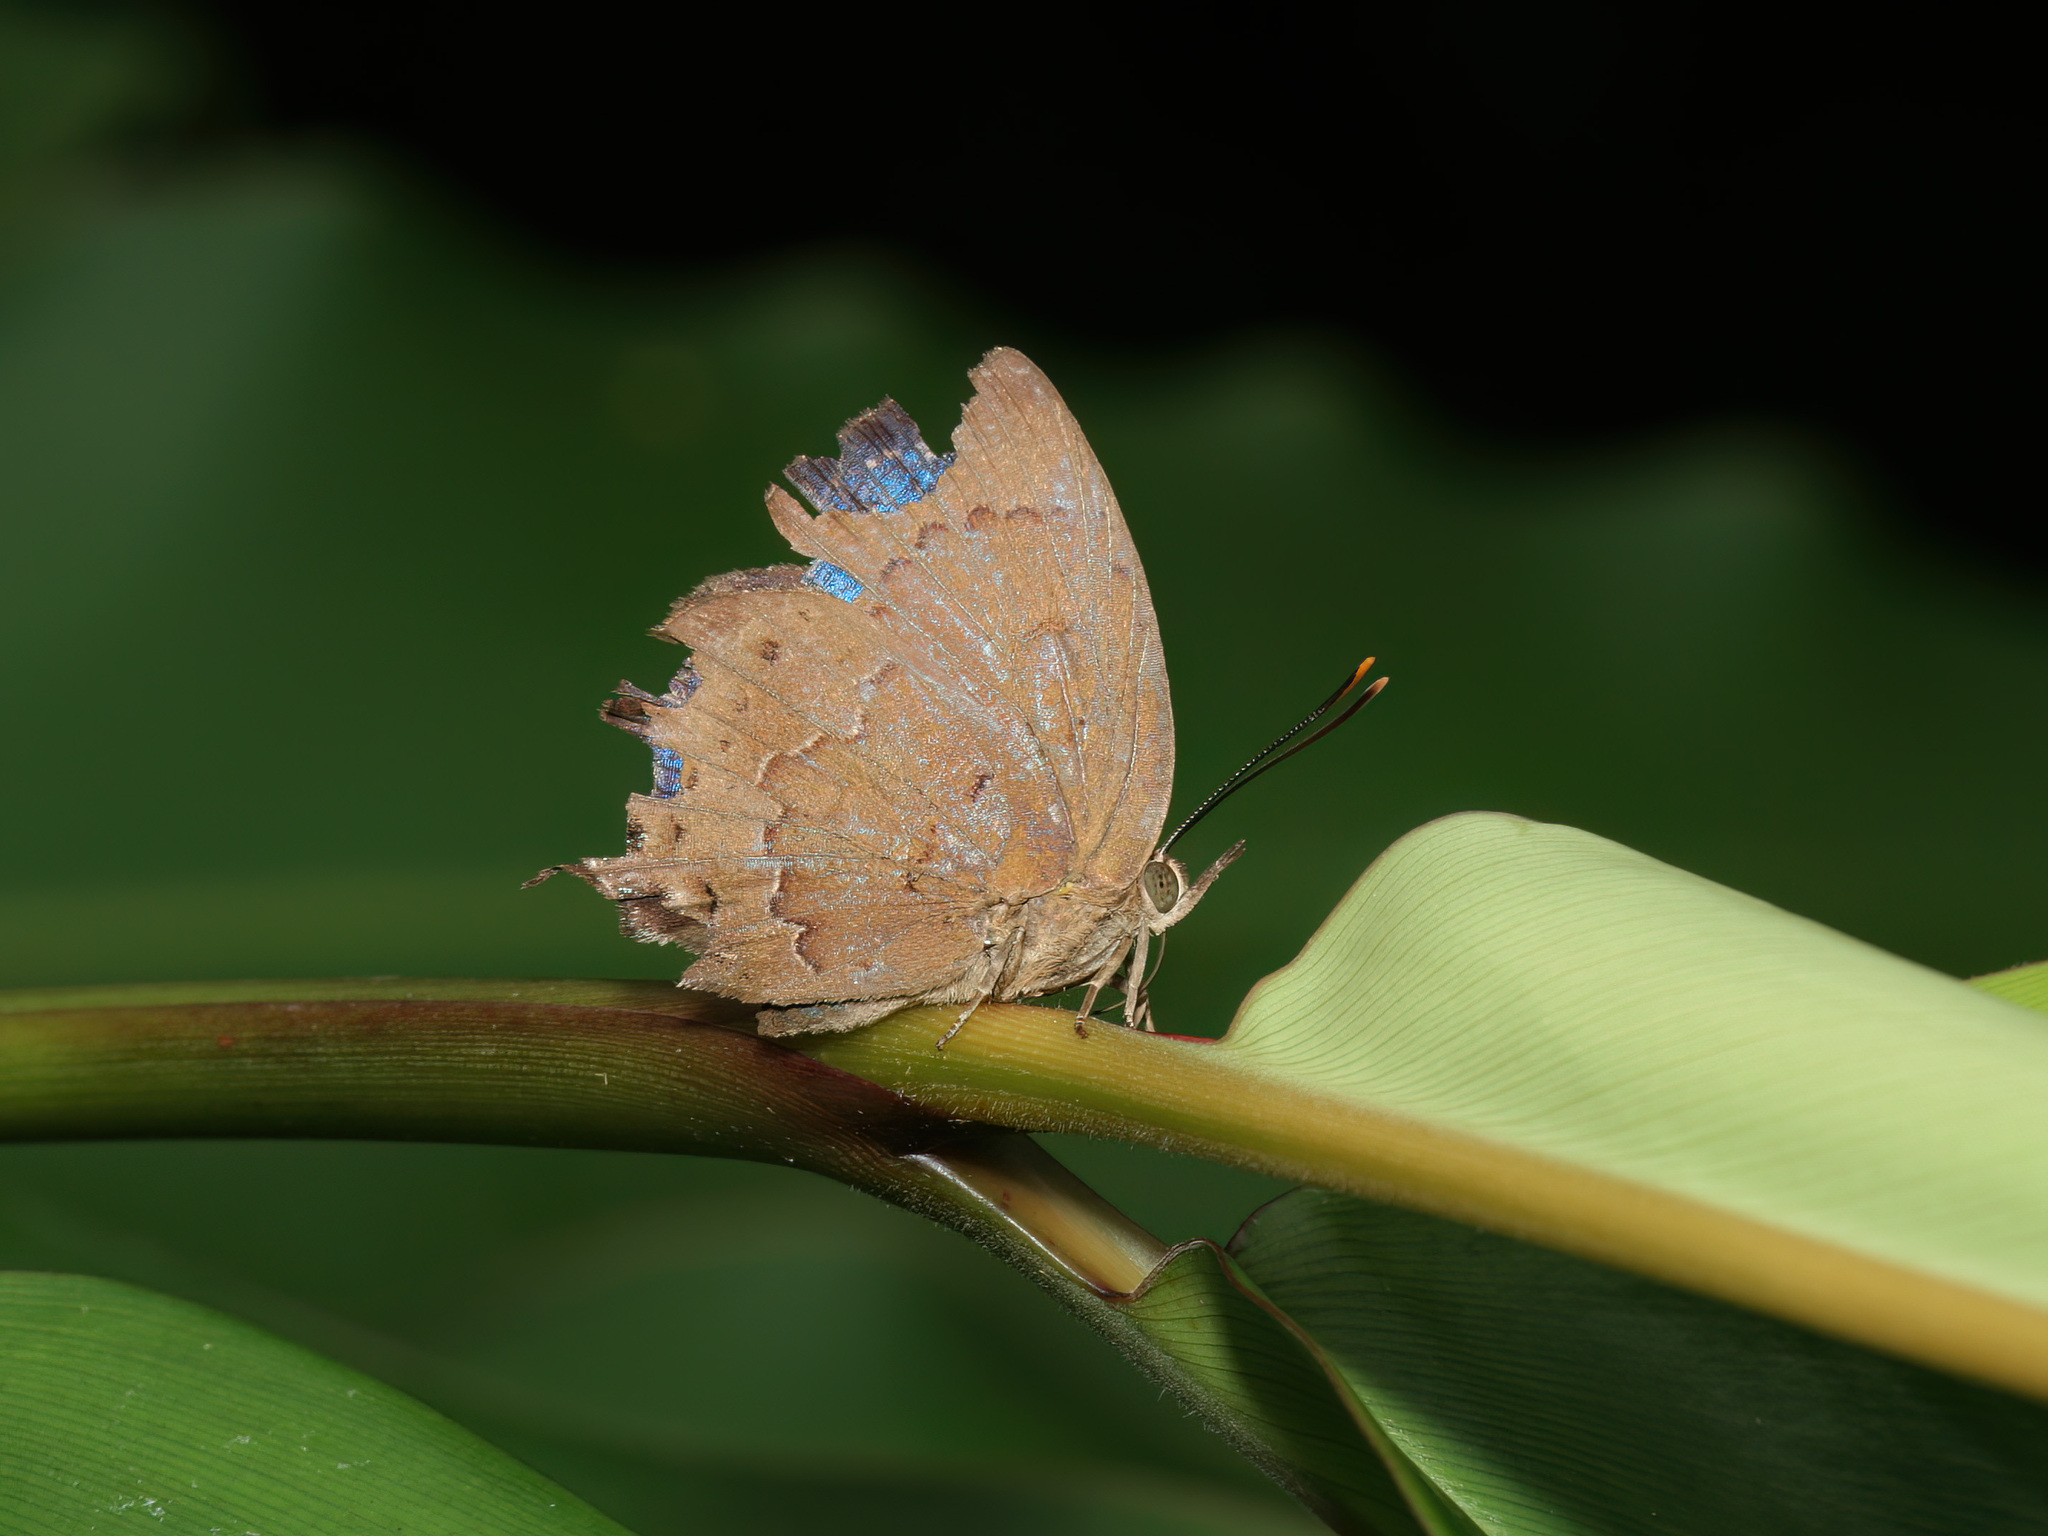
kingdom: Animalia
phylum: Arthropoda
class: Insecta
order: Lepidoptera
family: Lycaenidae
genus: Surendra
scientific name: Surendra vivarna
